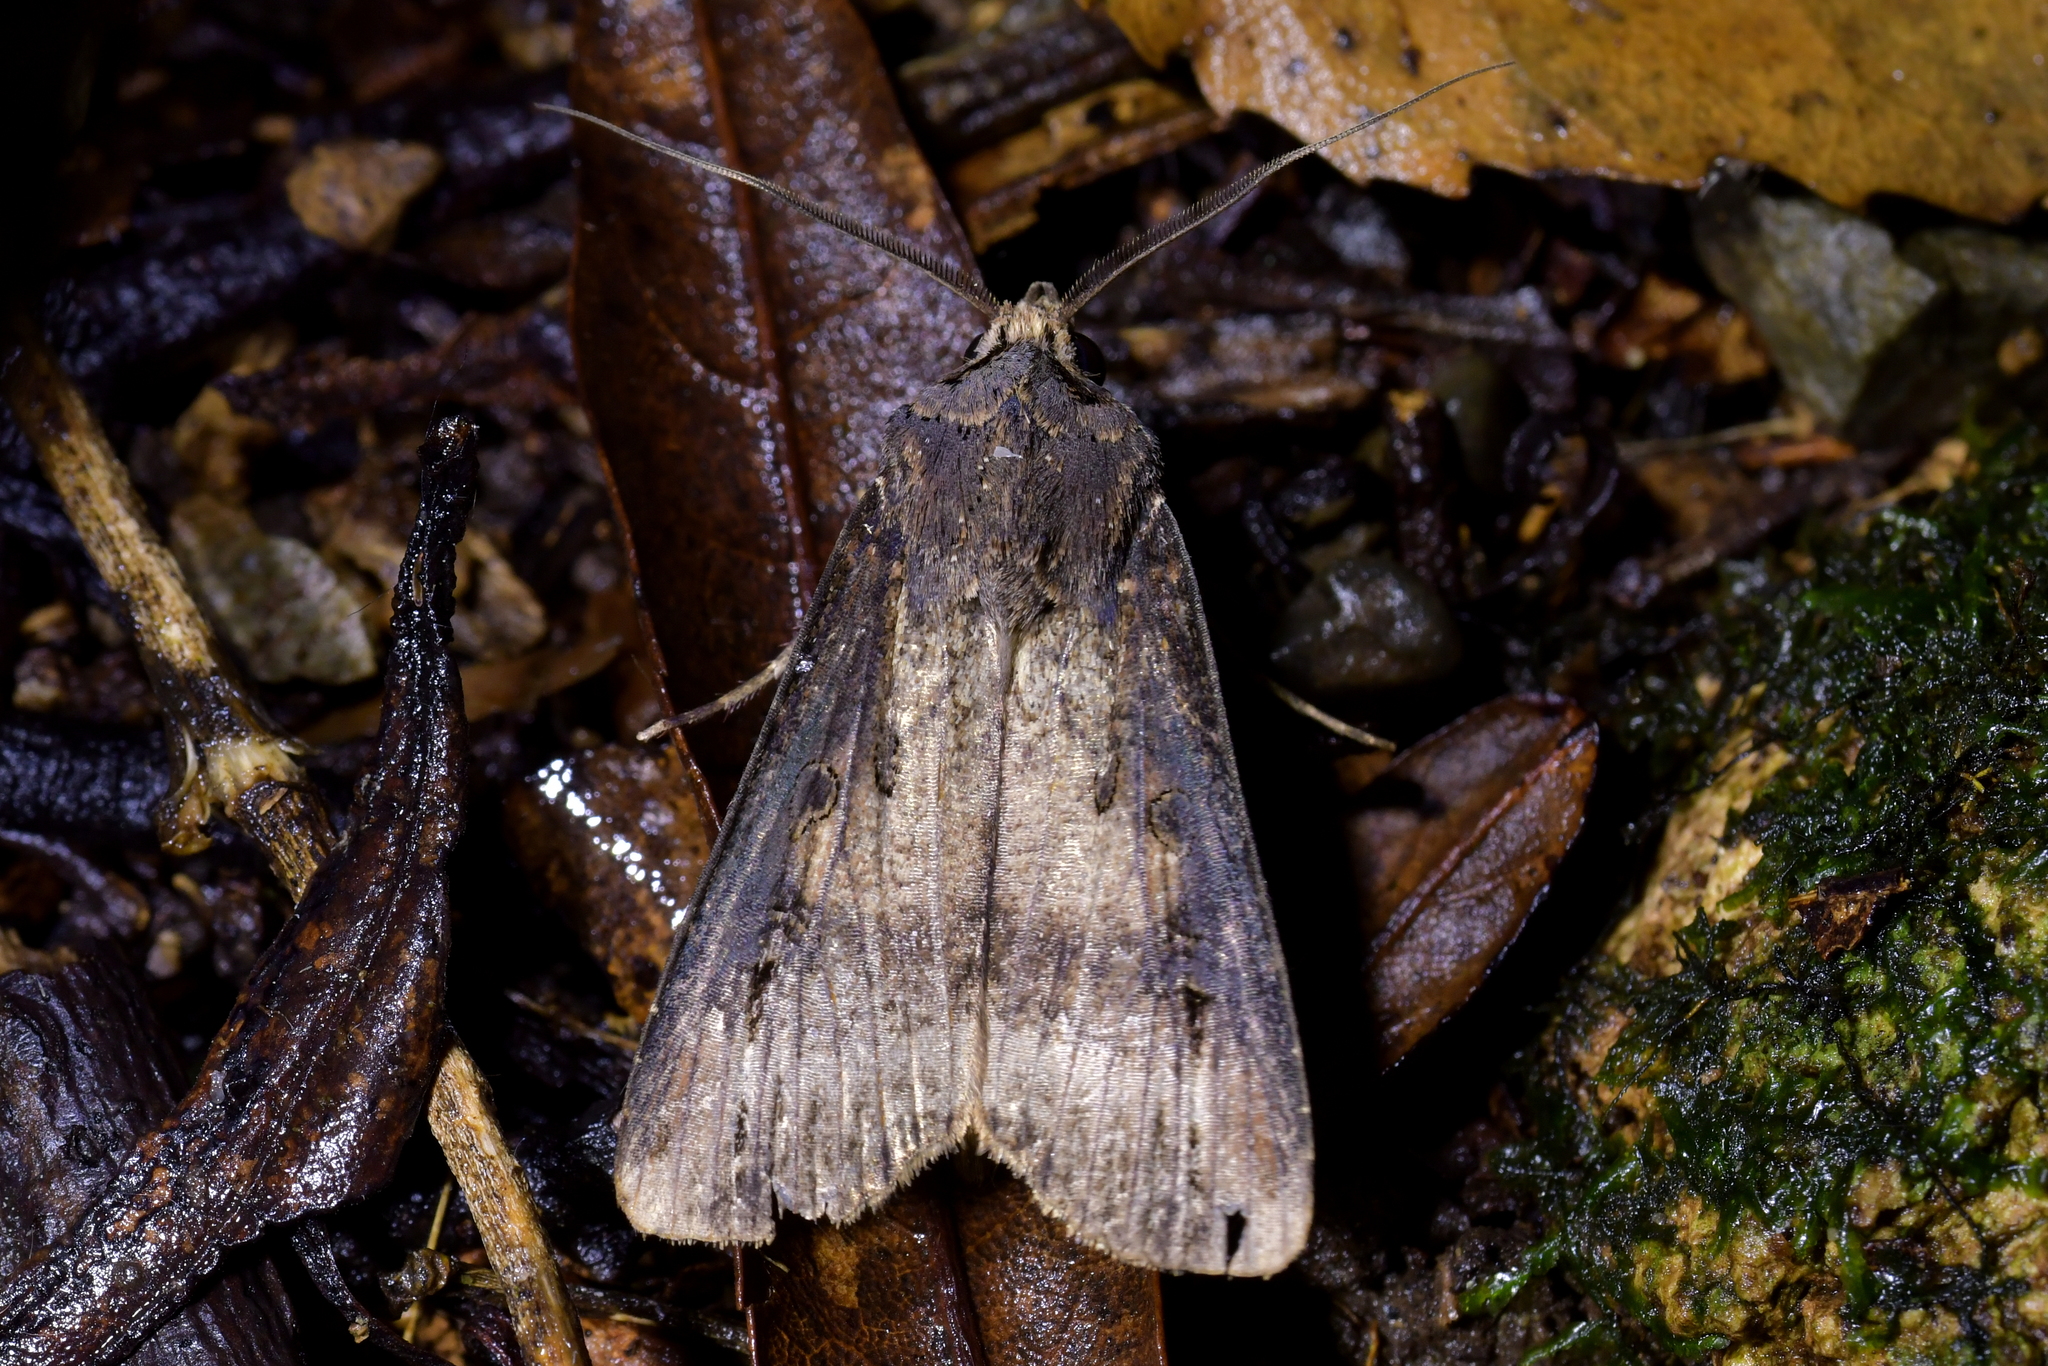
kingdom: Animalia
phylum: Arthropoda
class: Insecta
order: Lepidoptera
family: Noctuidae
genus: Agrotis
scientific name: Agrotis ipsilon
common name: Dark sword-grass
